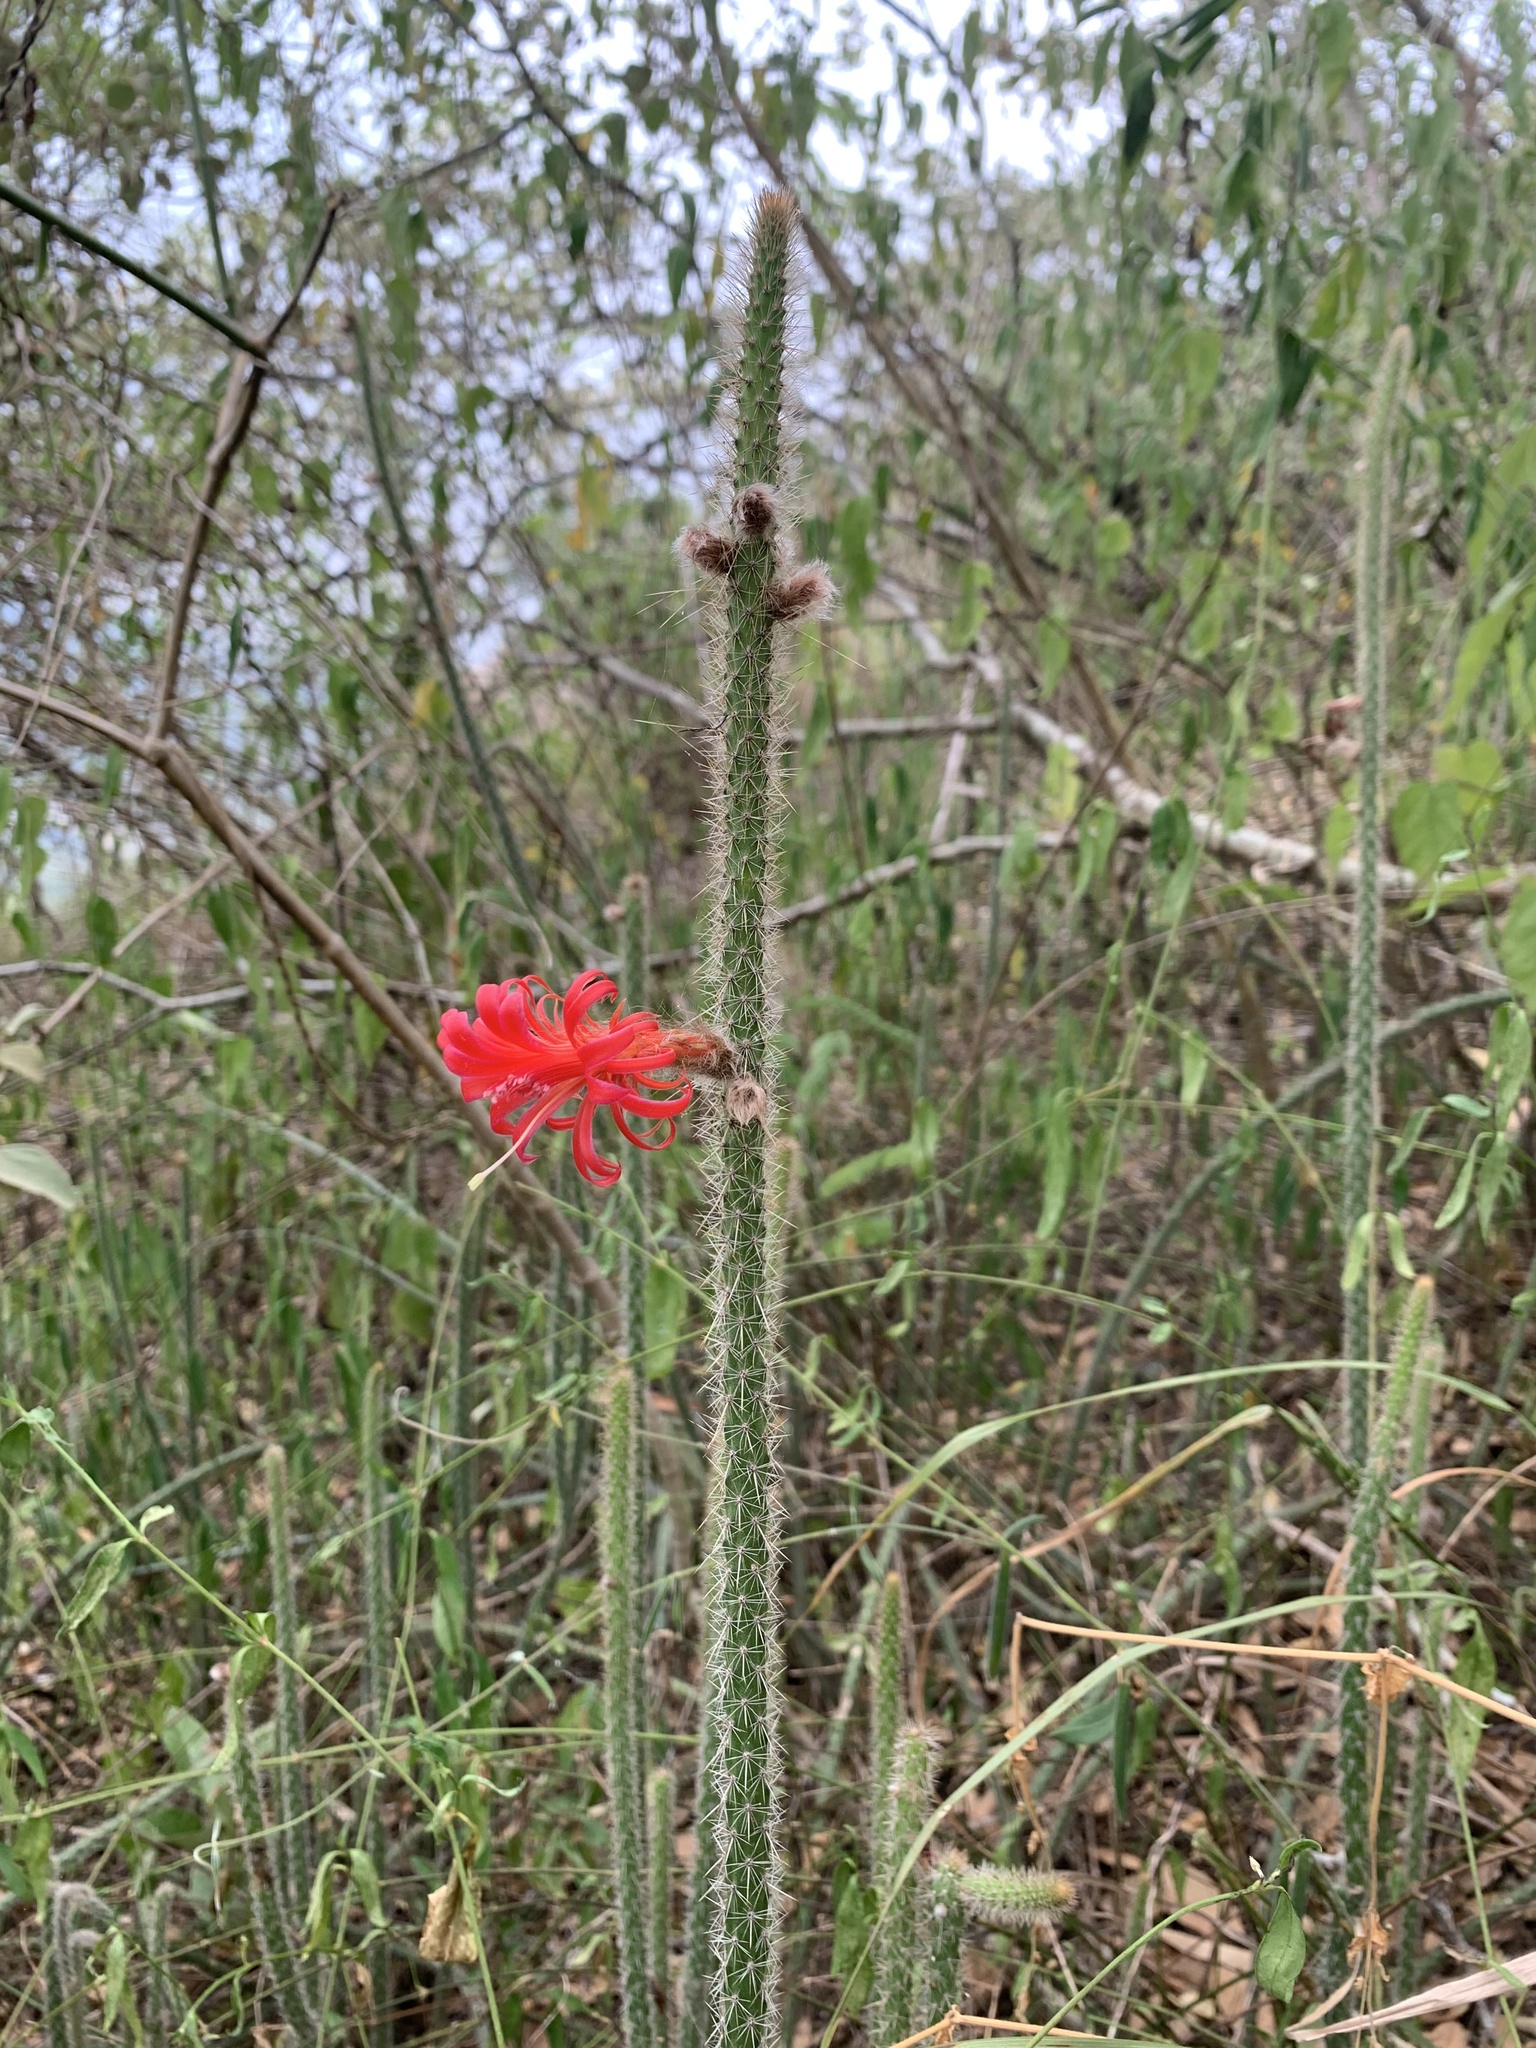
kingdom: Plantae
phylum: Tracheophyta
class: Magnoliopsida
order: Caryophyllales
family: Cactaceae
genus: Borzicactus
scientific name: Borzicactus tenuiserpens
